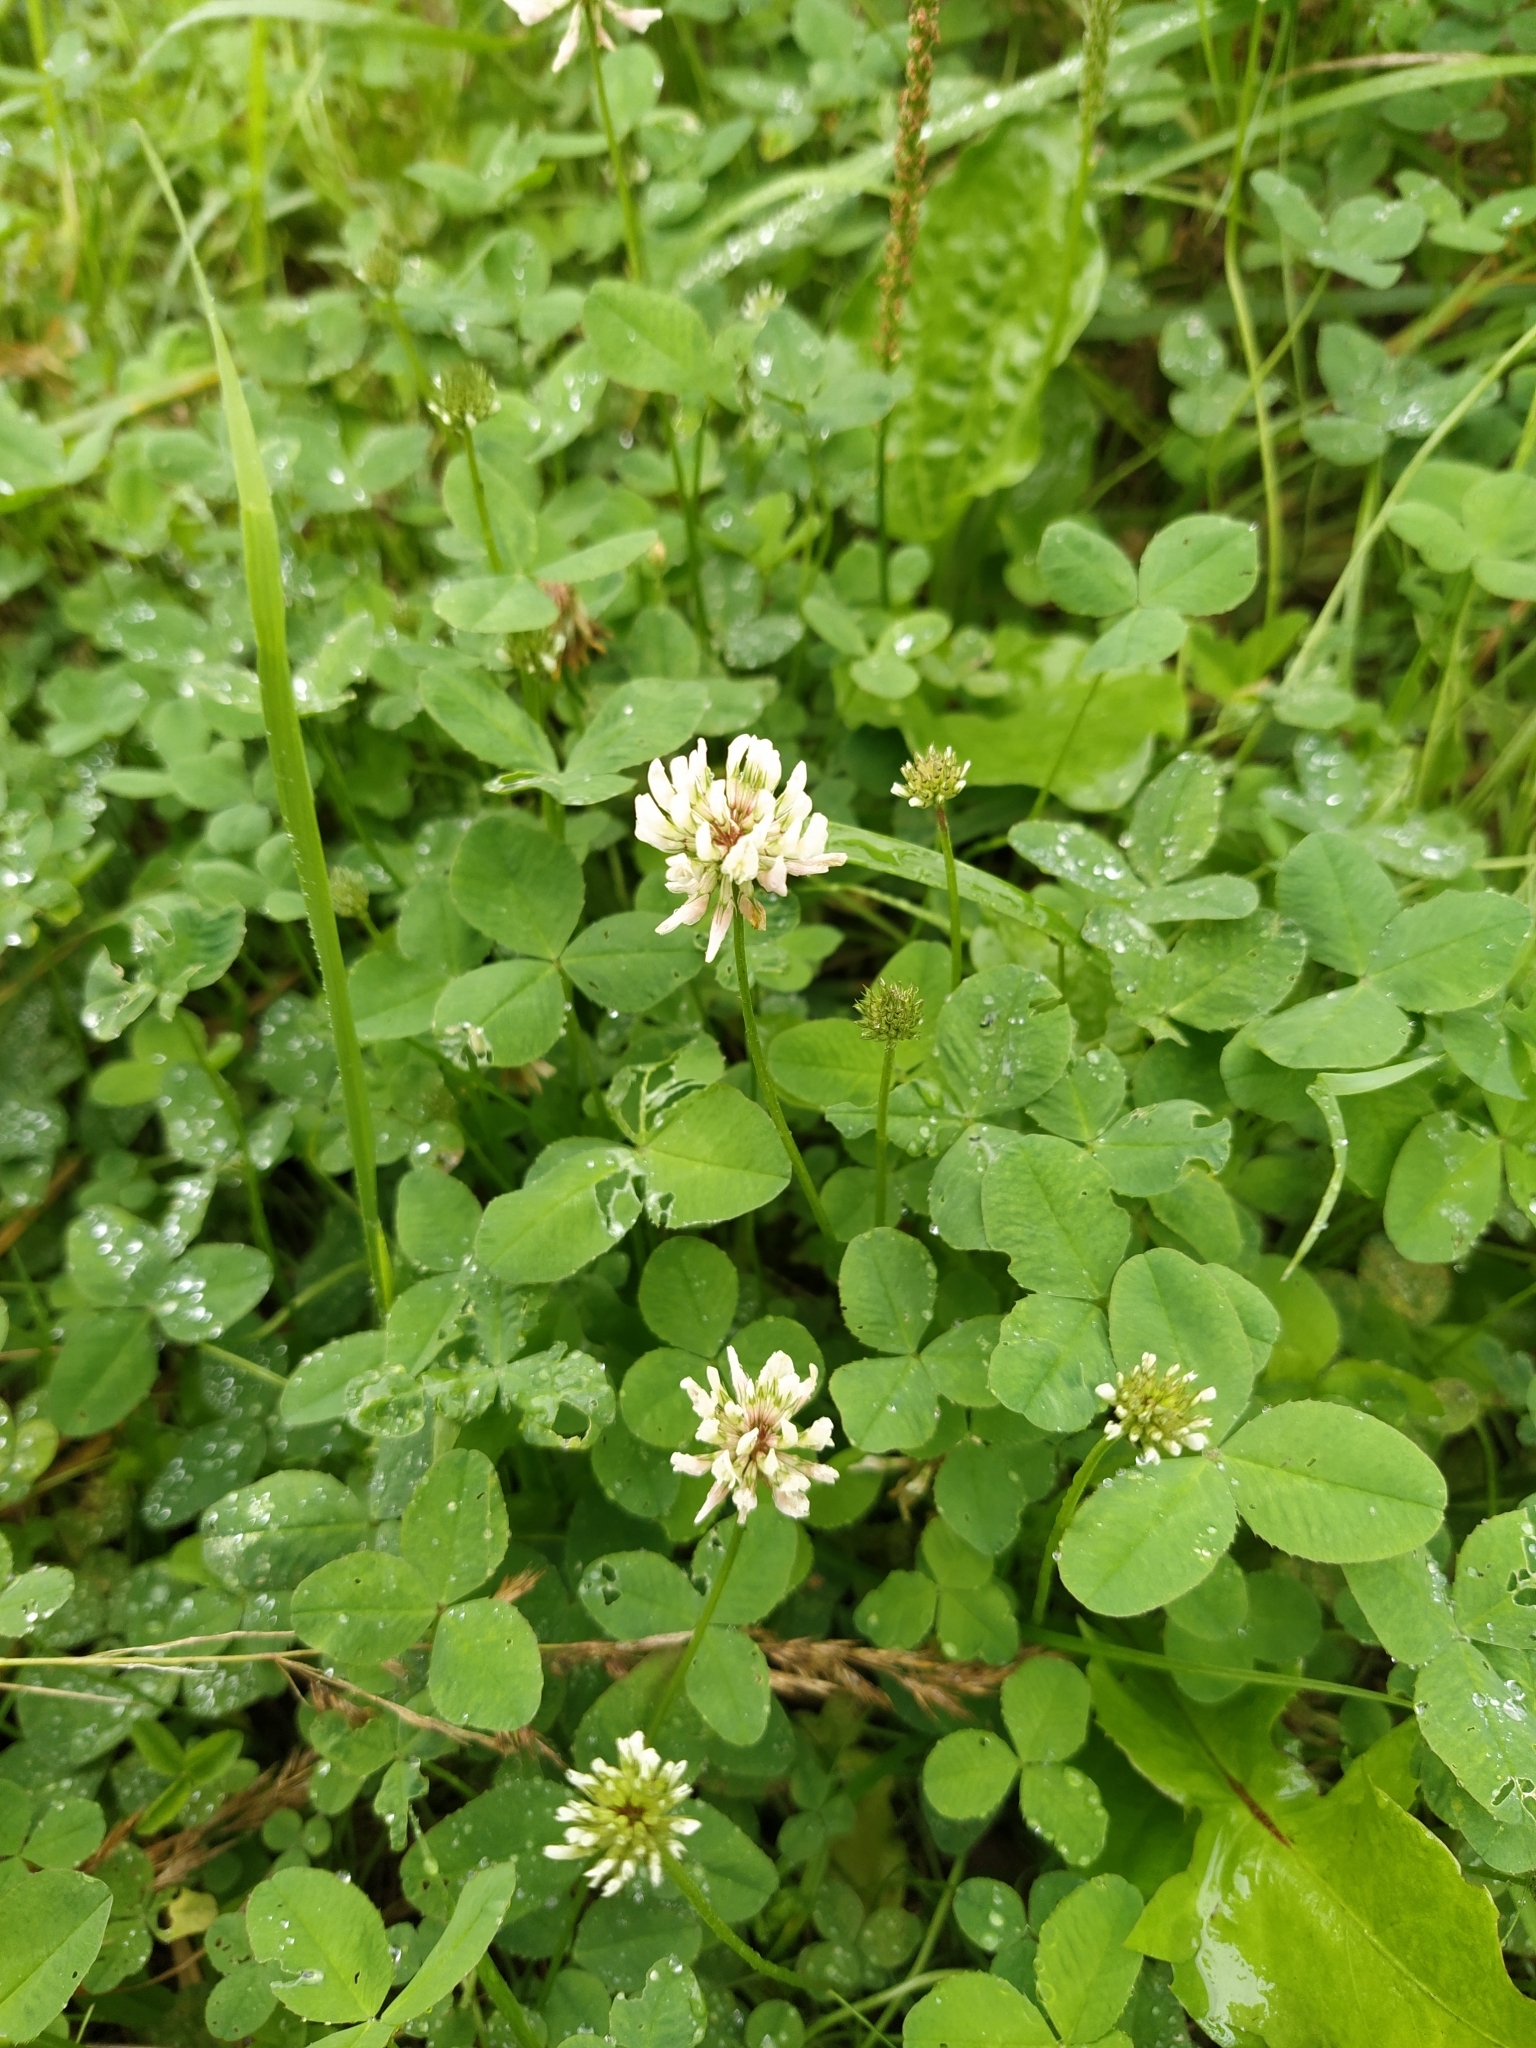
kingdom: Plantae
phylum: Tracheophyta
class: Magnoliopsida
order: Fabales
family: Fabaceae
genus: Trifolium
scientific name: Trifolium repens
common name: White clover
